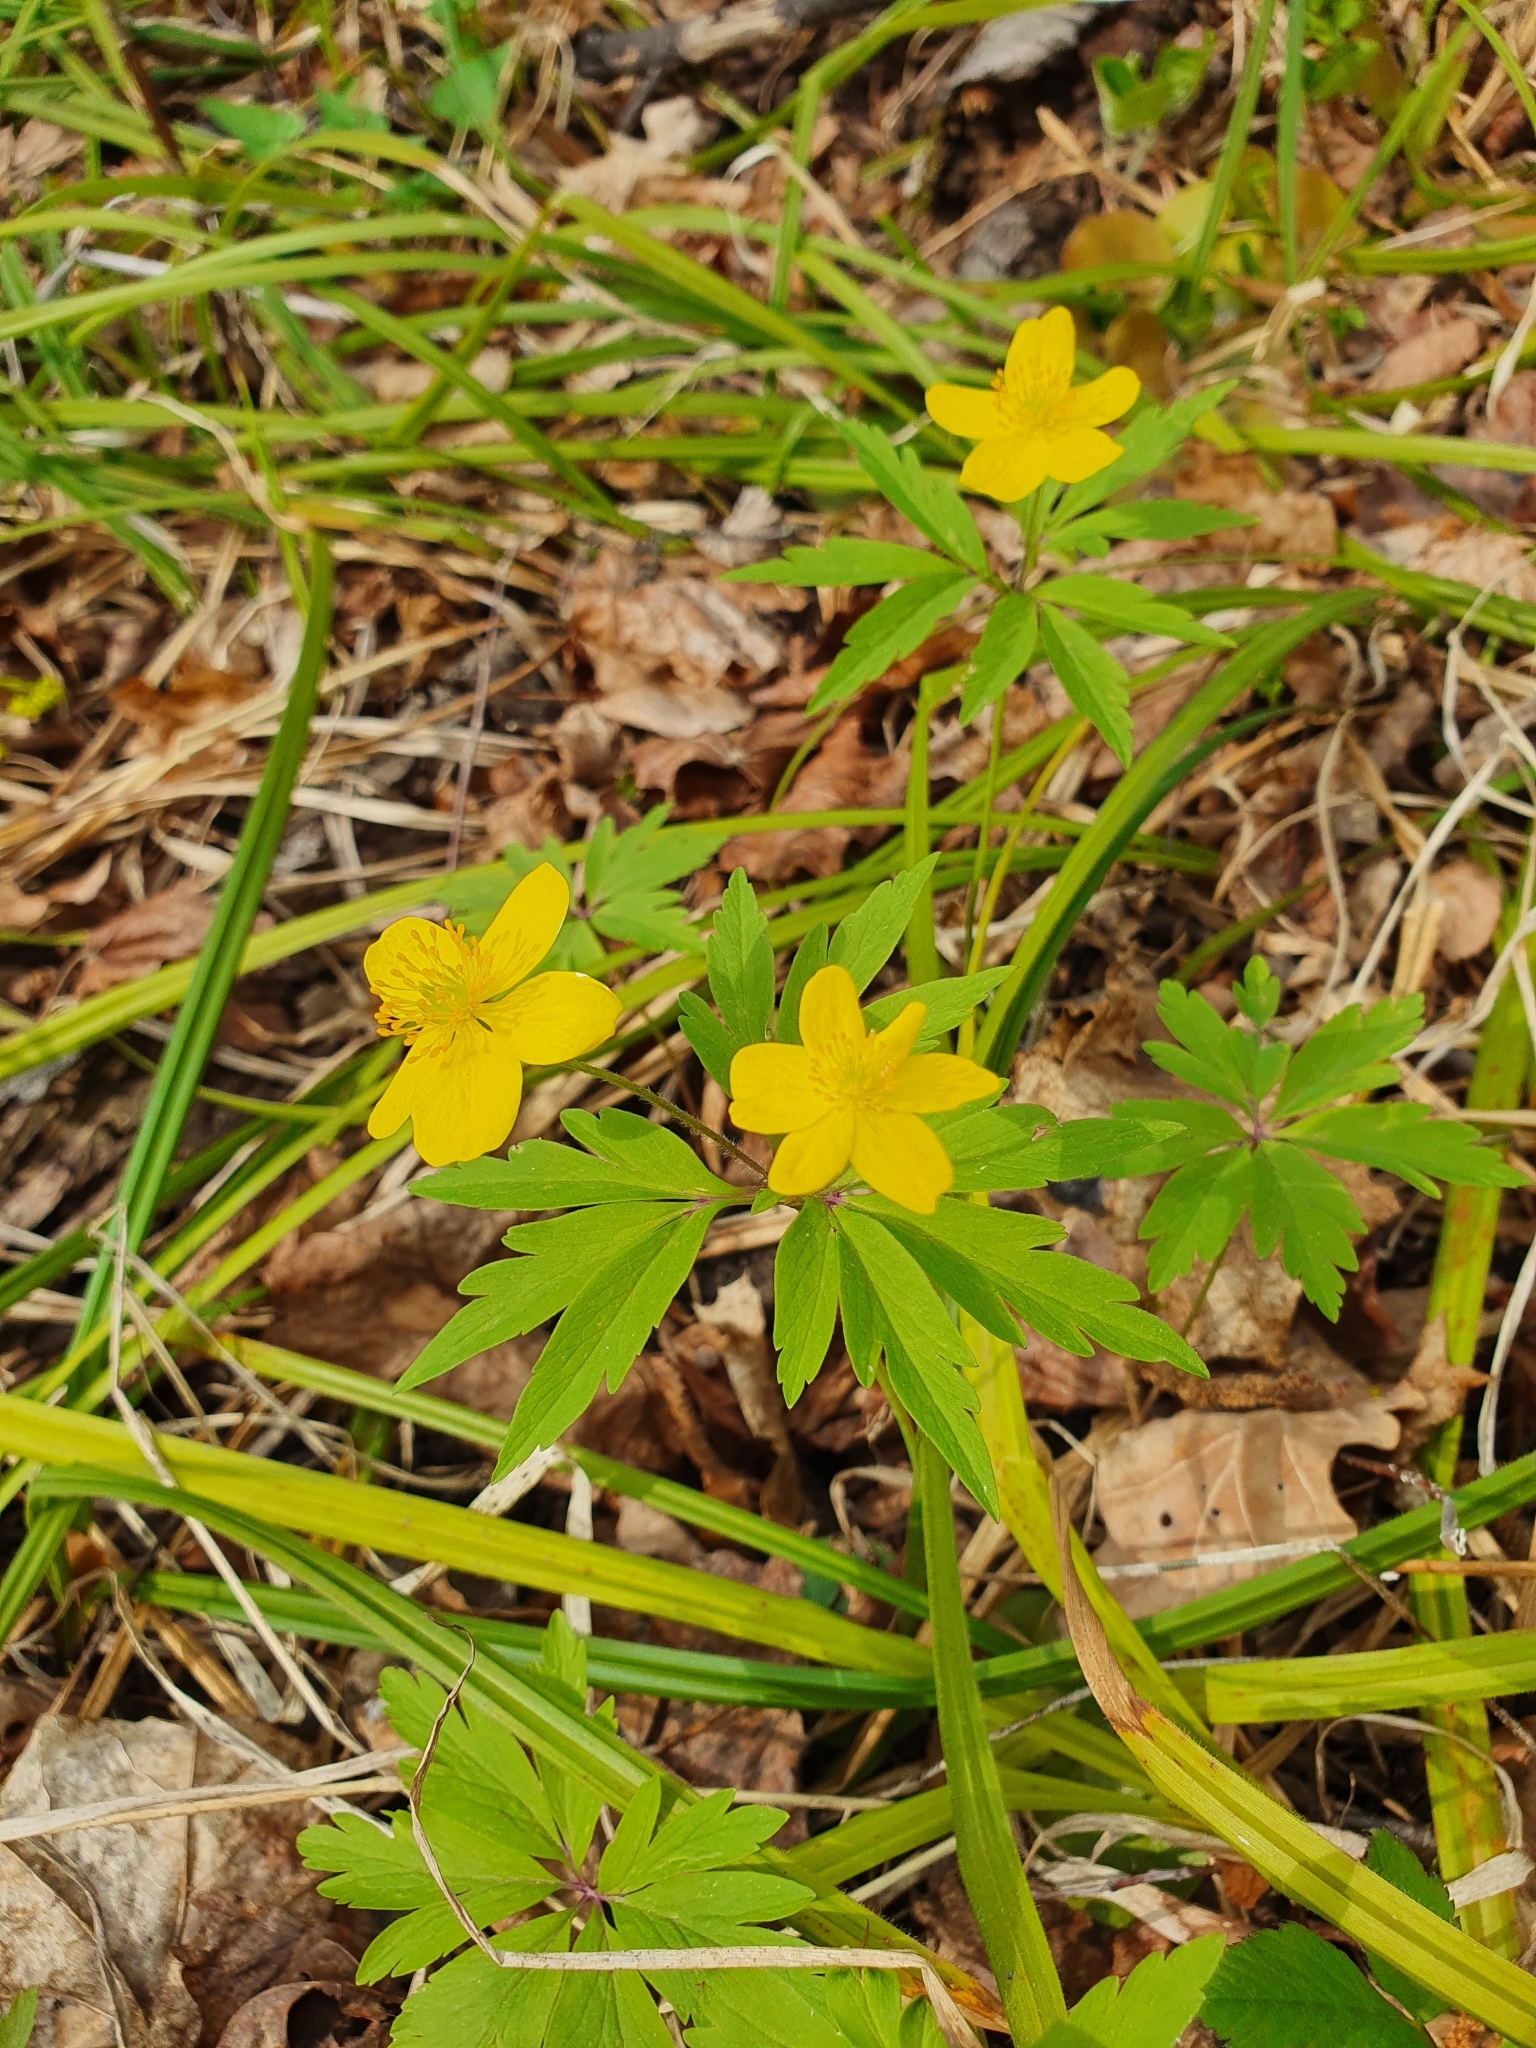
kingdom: Plantae
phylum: Tracheophyta
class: Magnoliopsida
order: Ranunculales
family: Ranunculaceae
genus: Anemone
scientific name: Anemone ranunculoides
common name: Yellow anemone
